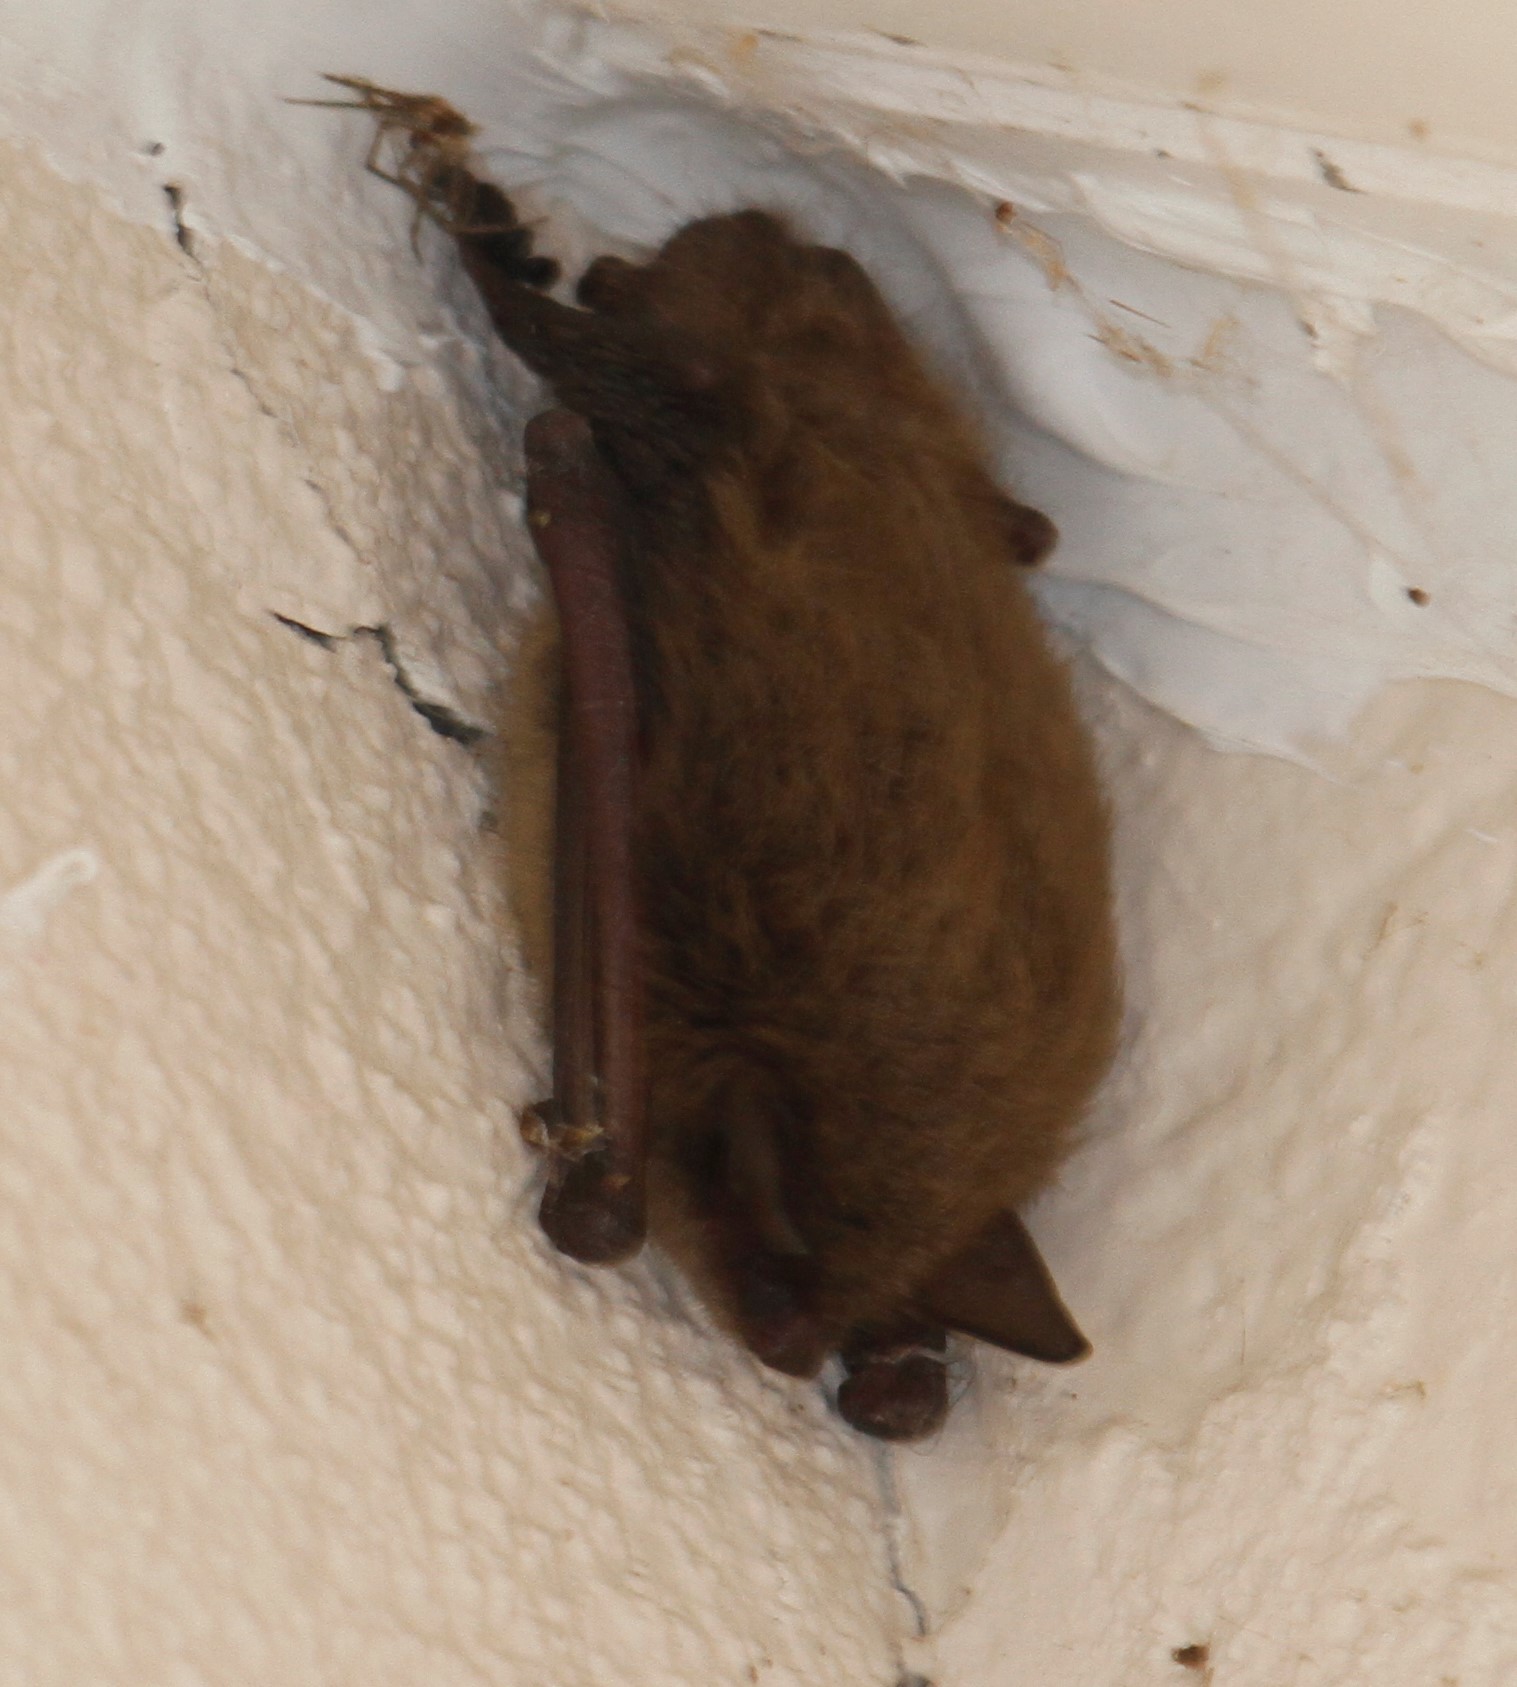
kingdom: Animalia
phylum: Chordata
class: Mammalia
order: Chiroptera
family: Vespertilionidae
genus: Myotis
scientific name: Myotis lucifugus
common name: Little brown bat
